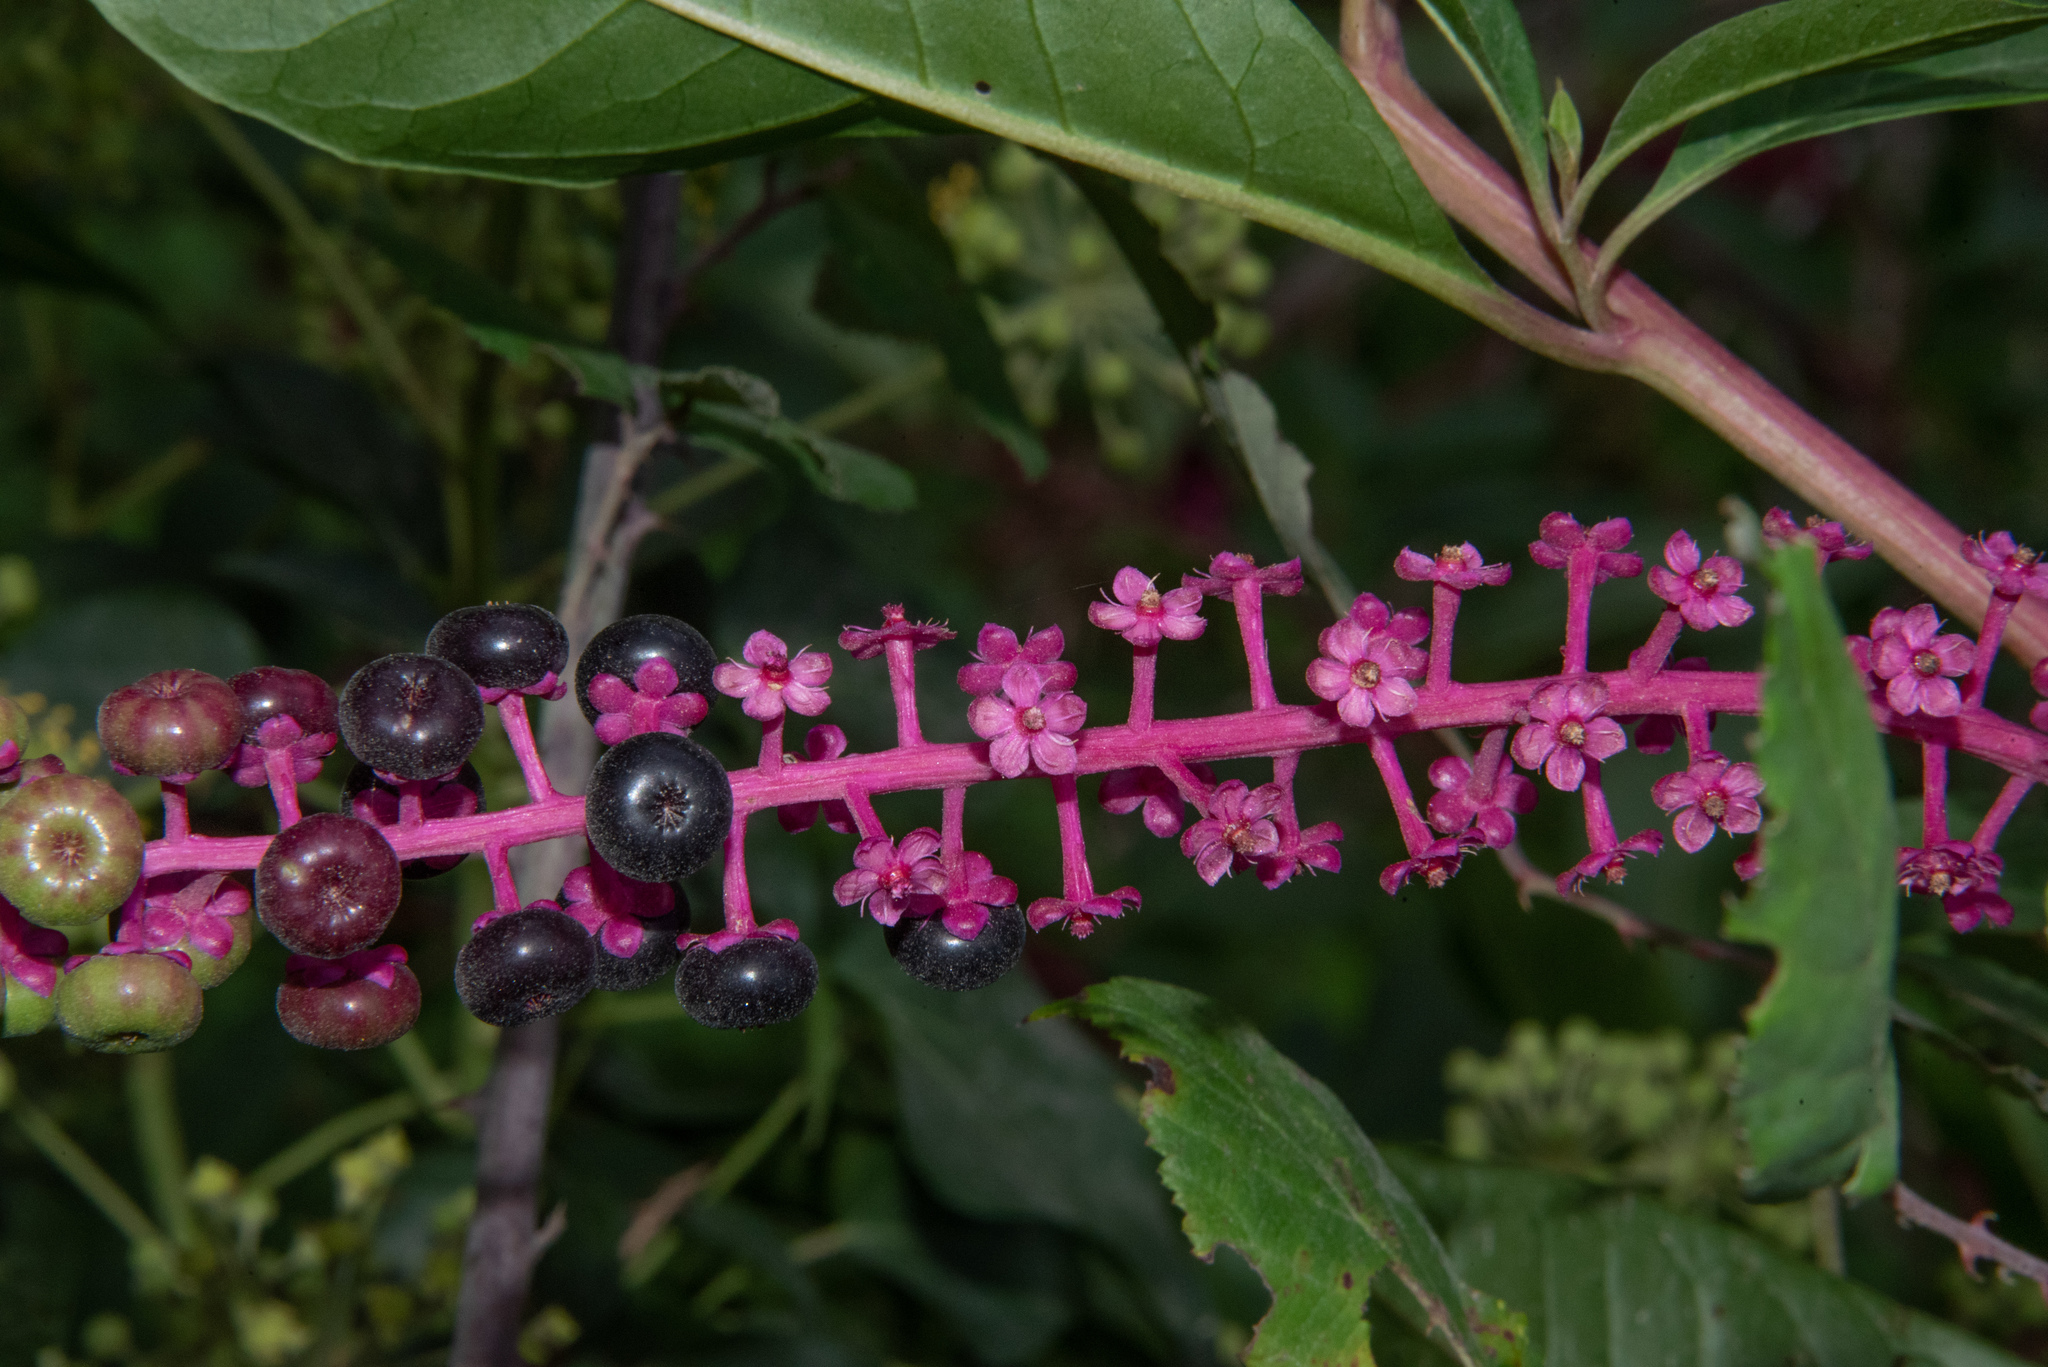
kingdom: Plantae
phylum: Tracheophyta
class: Magnoliopsida
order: Caryophyllales
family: Phytolaccaceae
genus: Phytolacca
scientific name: Phytolacca americana
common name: American pokeweed
